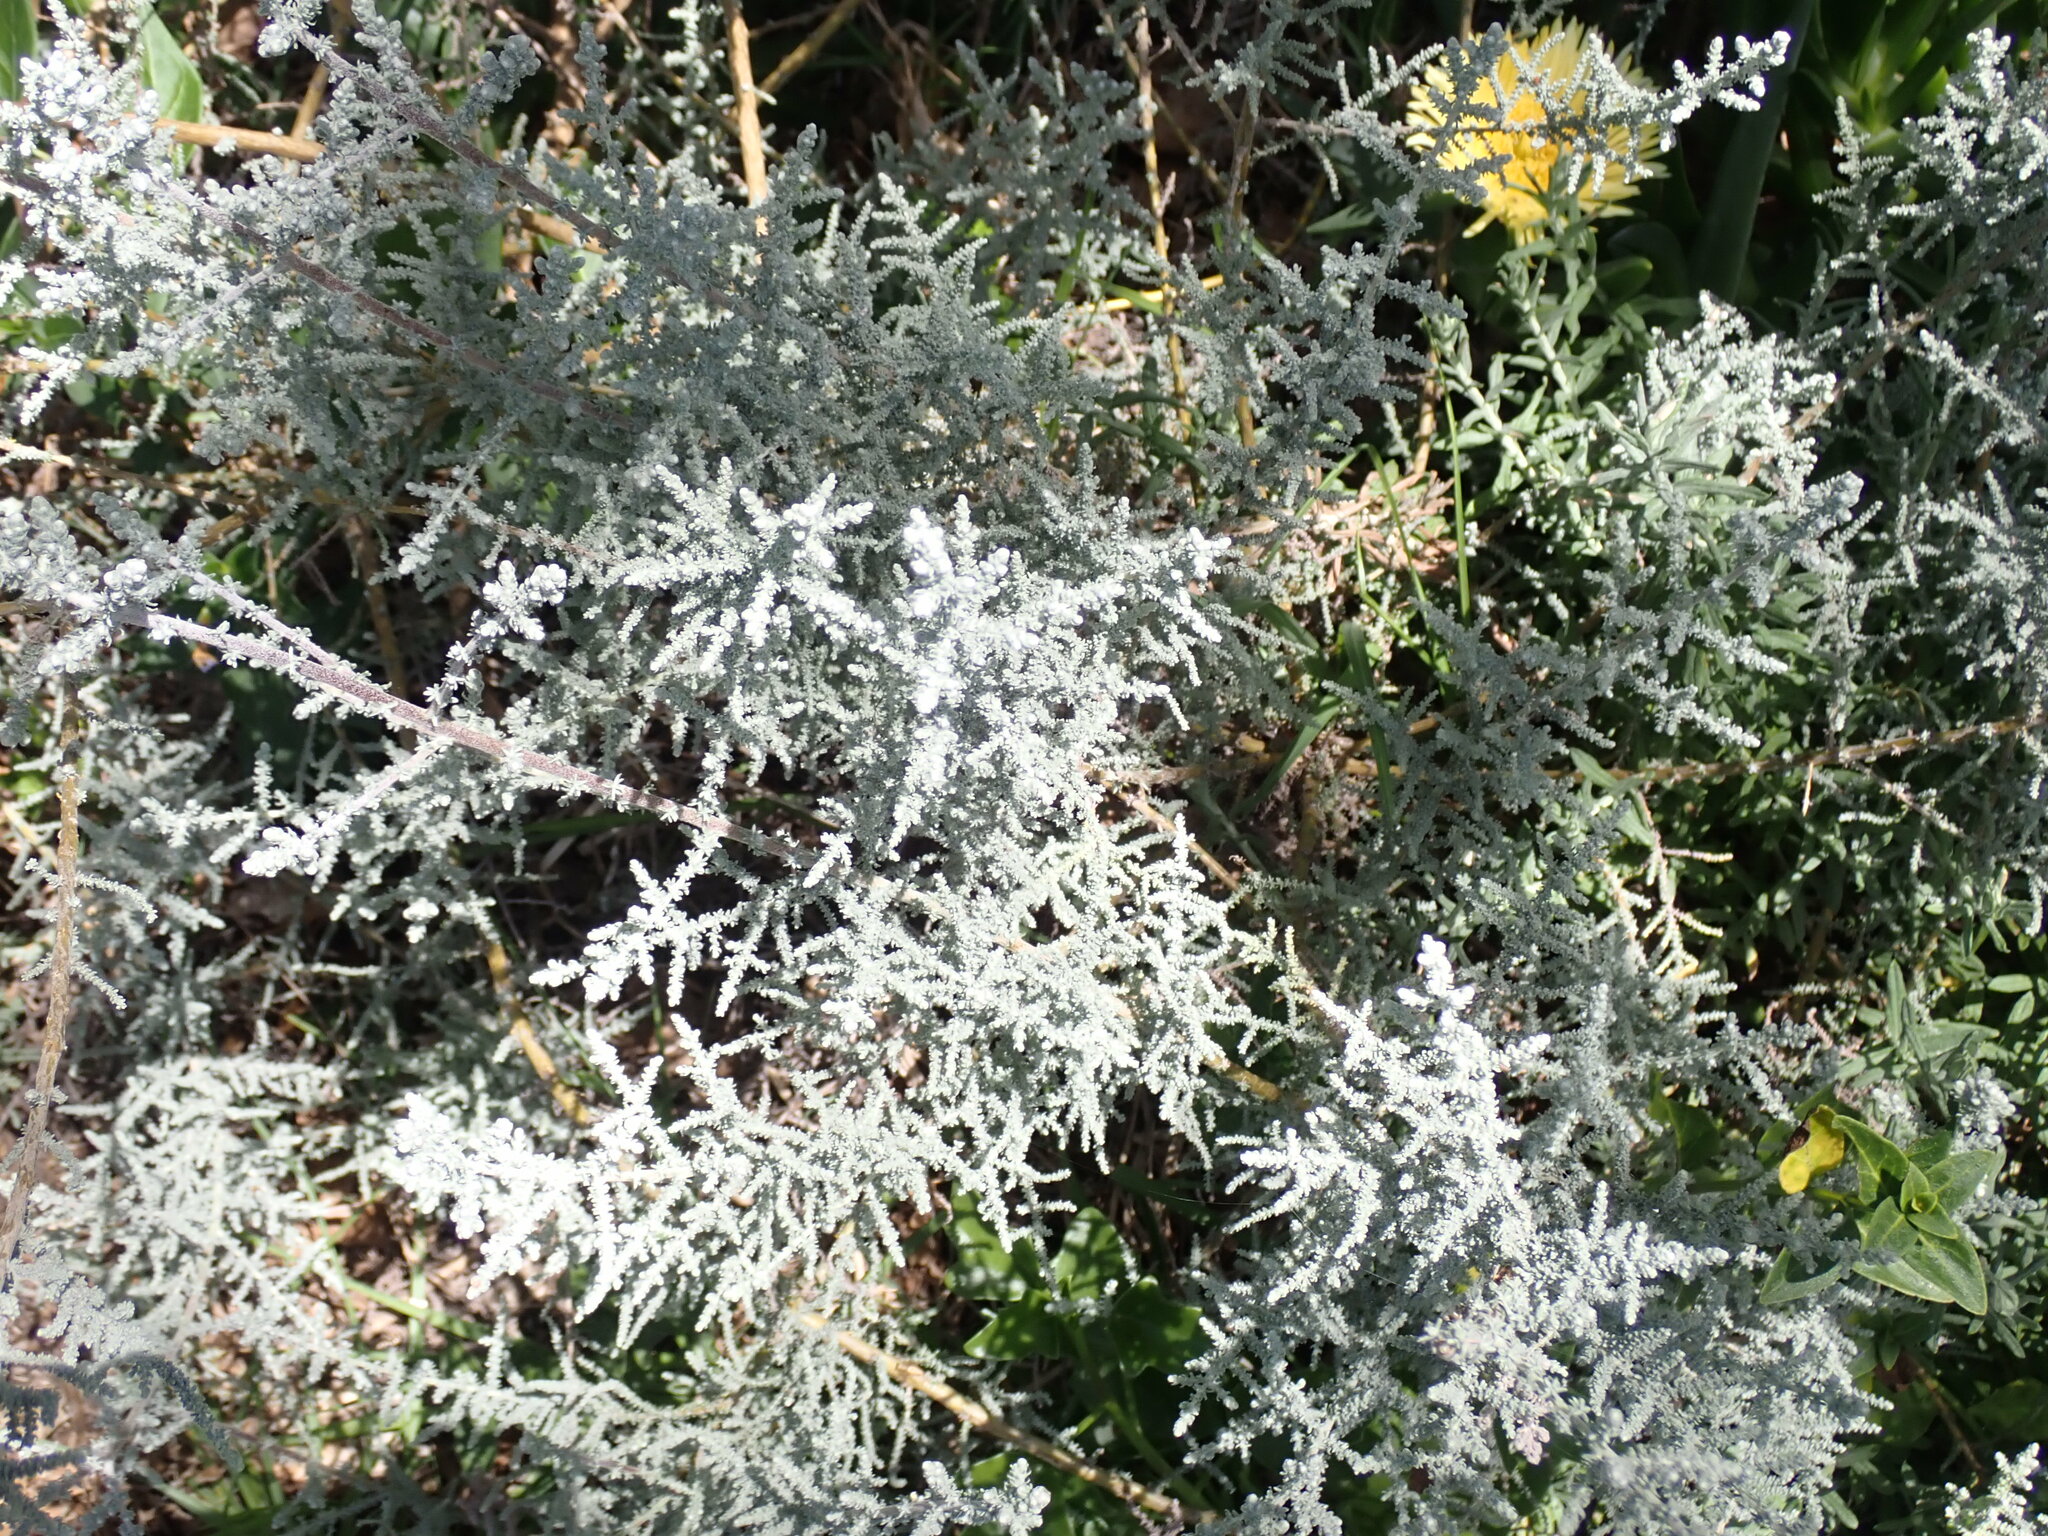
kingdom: Plantae
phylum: Tracheophyta
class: Magnoliopsida
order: Asterales
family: Asteraceae
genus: Seriphium
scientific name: Seriphium plumosum
